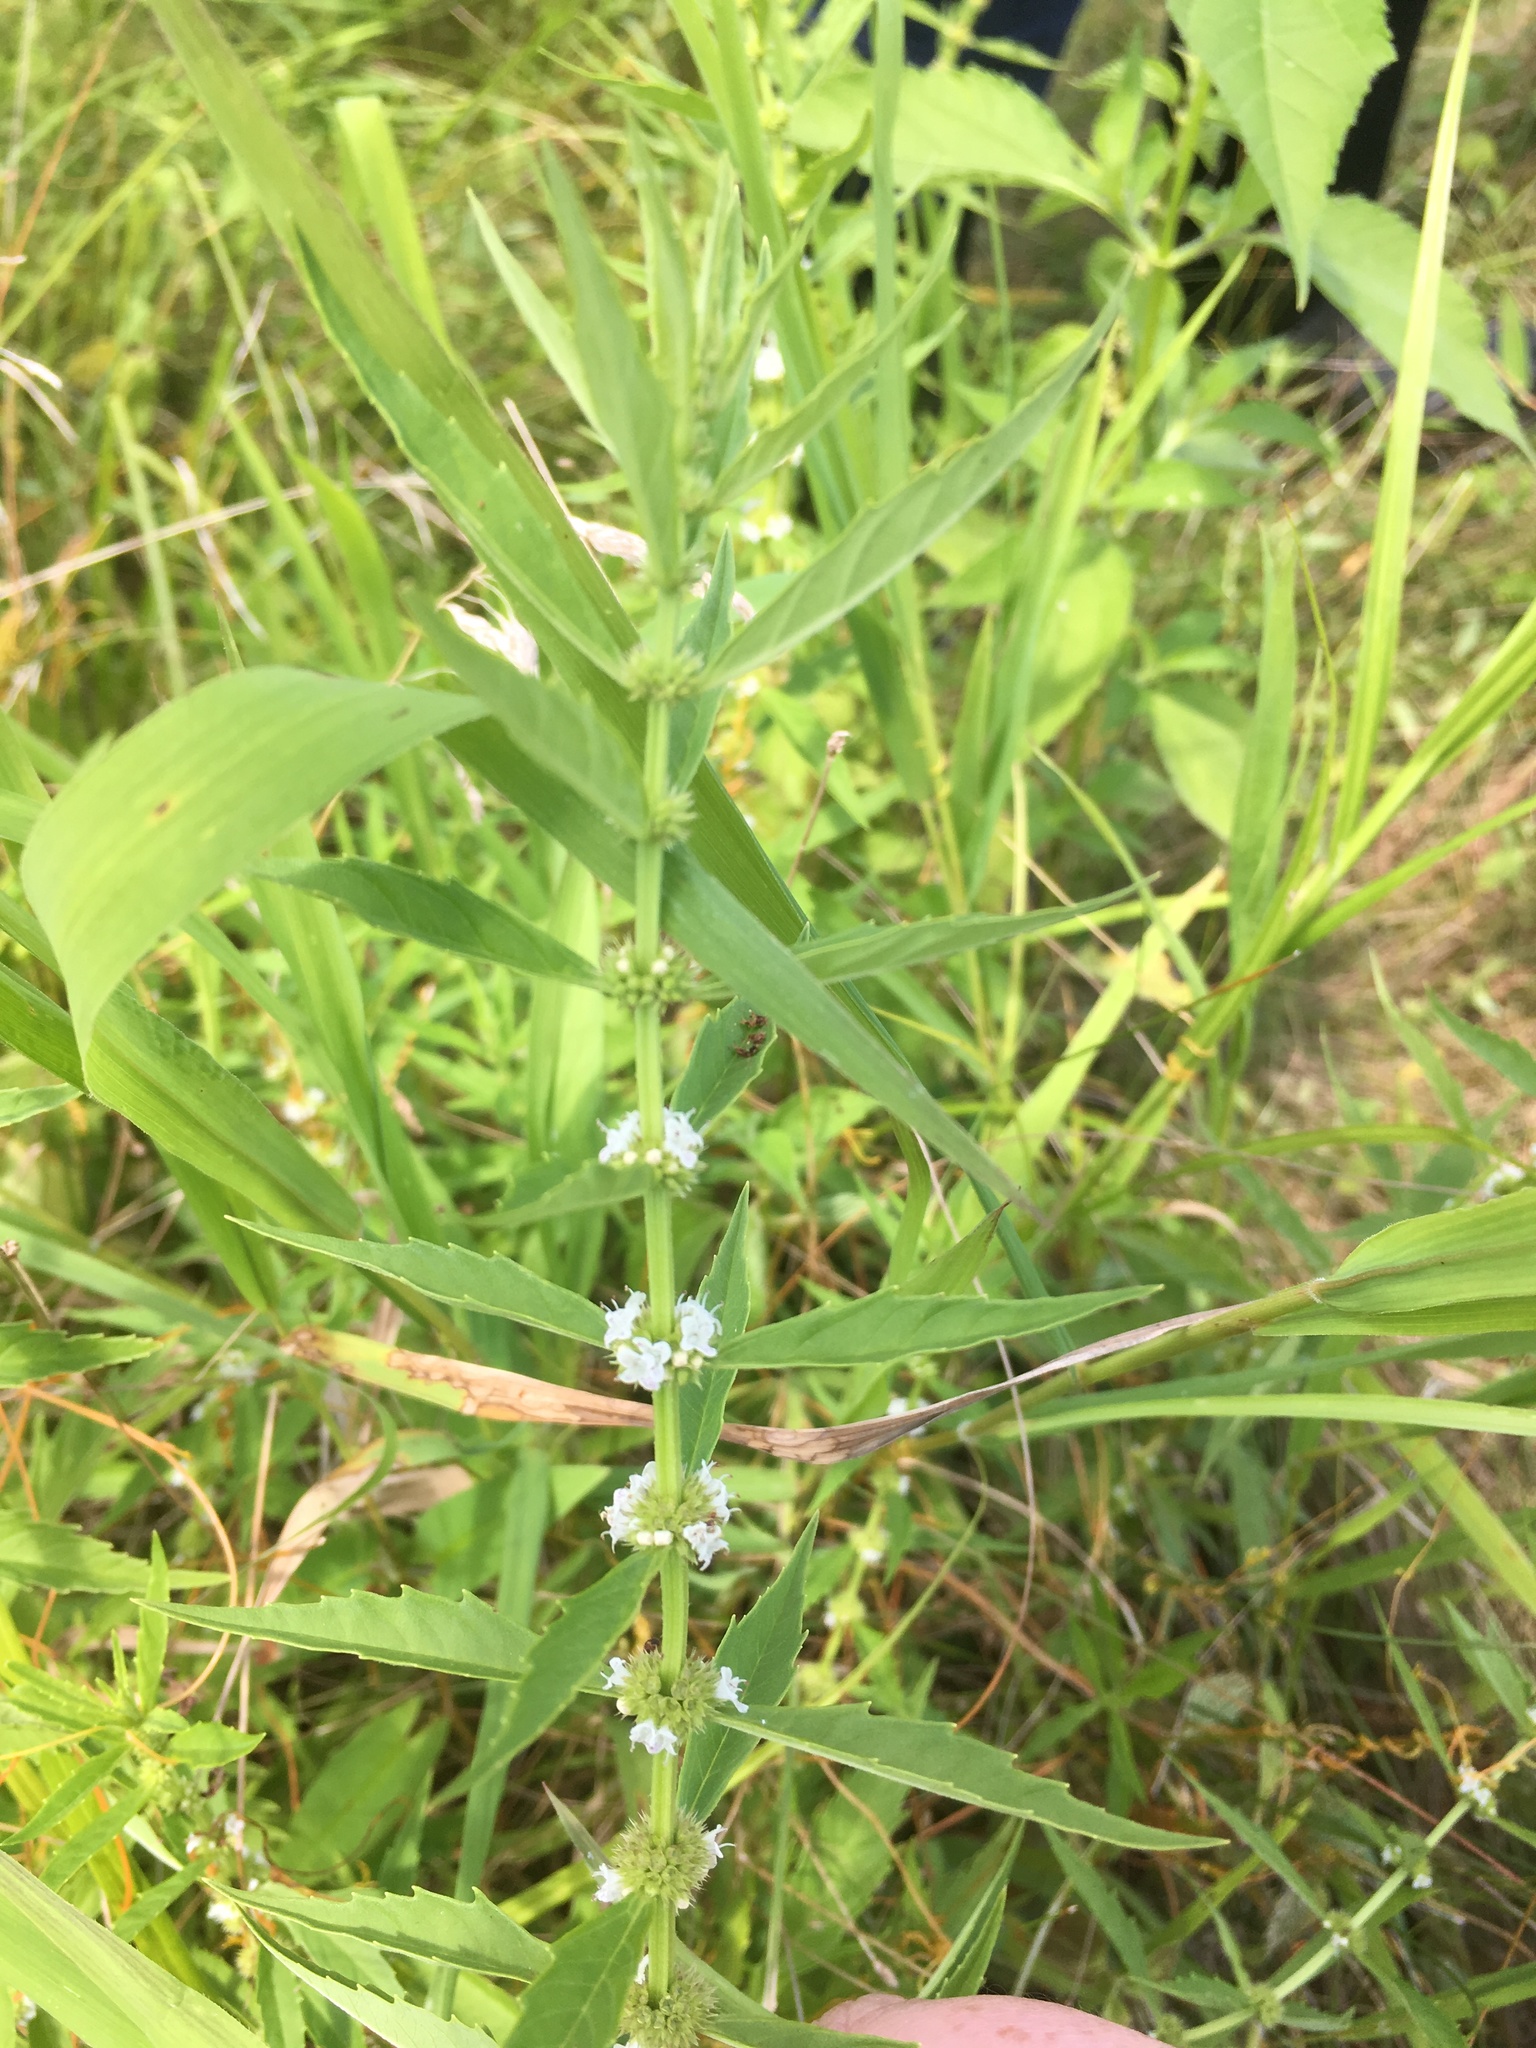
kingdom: Plantae
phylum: Tracheophyta
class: Magnoliopsida
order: Lamiales
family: Lamiaceae
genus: Lycopus
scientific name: Lycopus americanus
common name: American bugleweed
